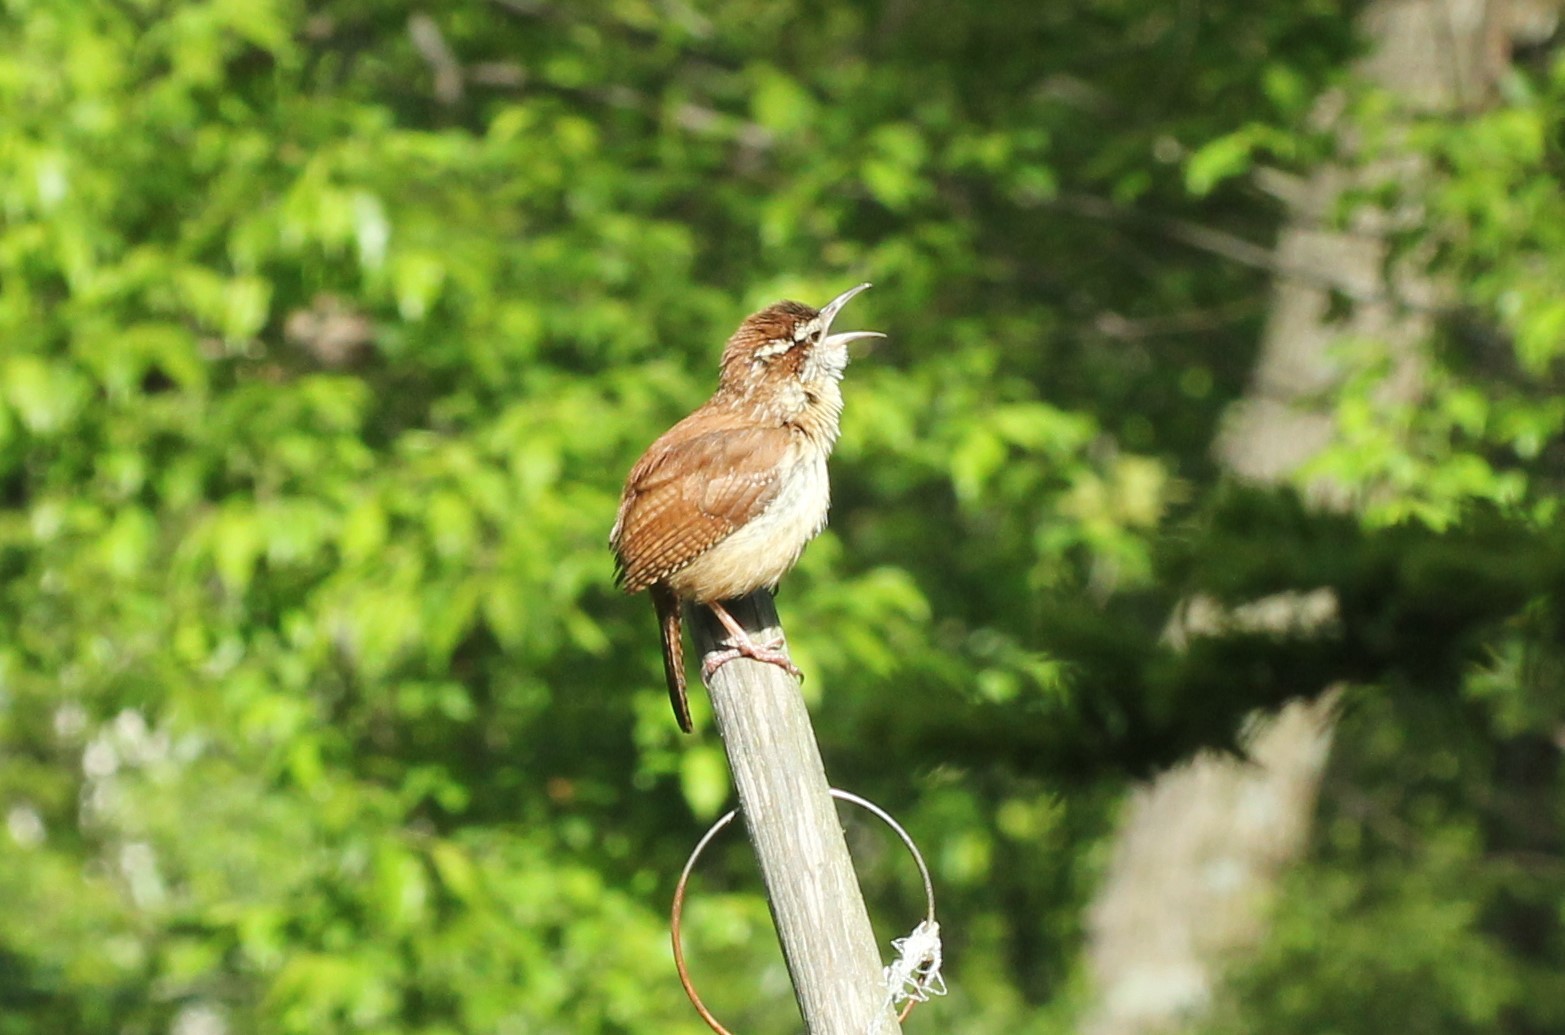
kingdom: Animalia
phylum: Chordata
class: Aves
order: Passeriformes
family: Troglodytidae
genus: Thryothorus
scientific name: Thryothorus ludovicianus
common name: Carolina wren
